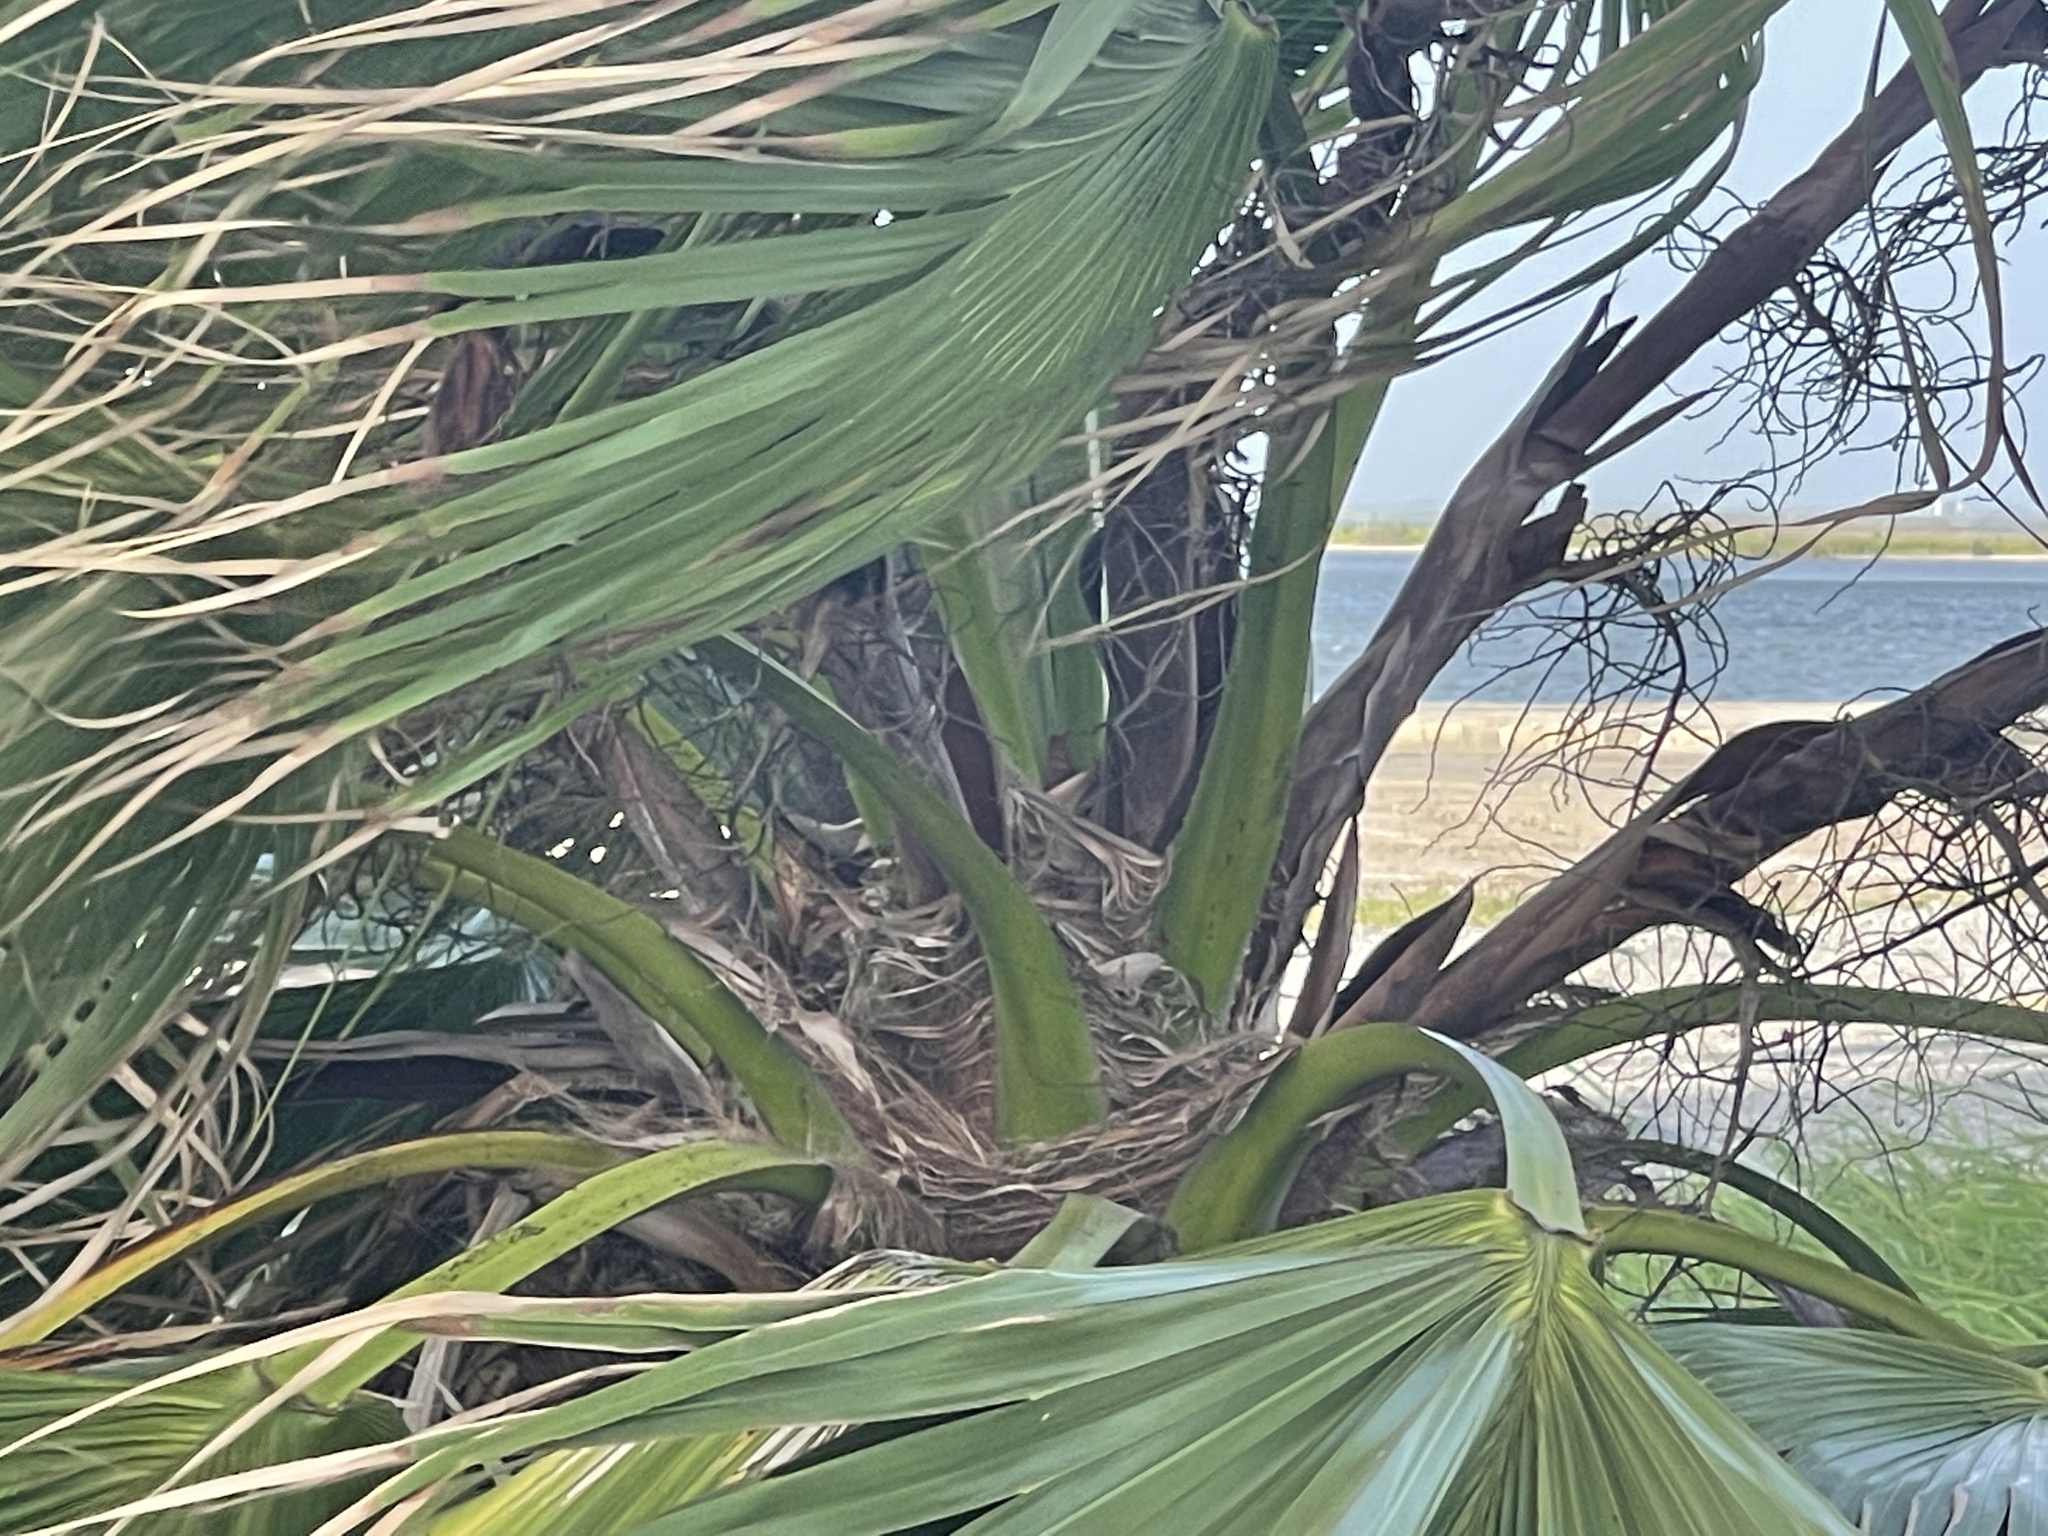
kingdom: Plantae
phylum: Tracheophyta
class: Liliopsida
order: Arecales
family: Arecaceae
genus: Washingtonia
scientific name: Washingtonia robusta
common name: Mexican fan palm
